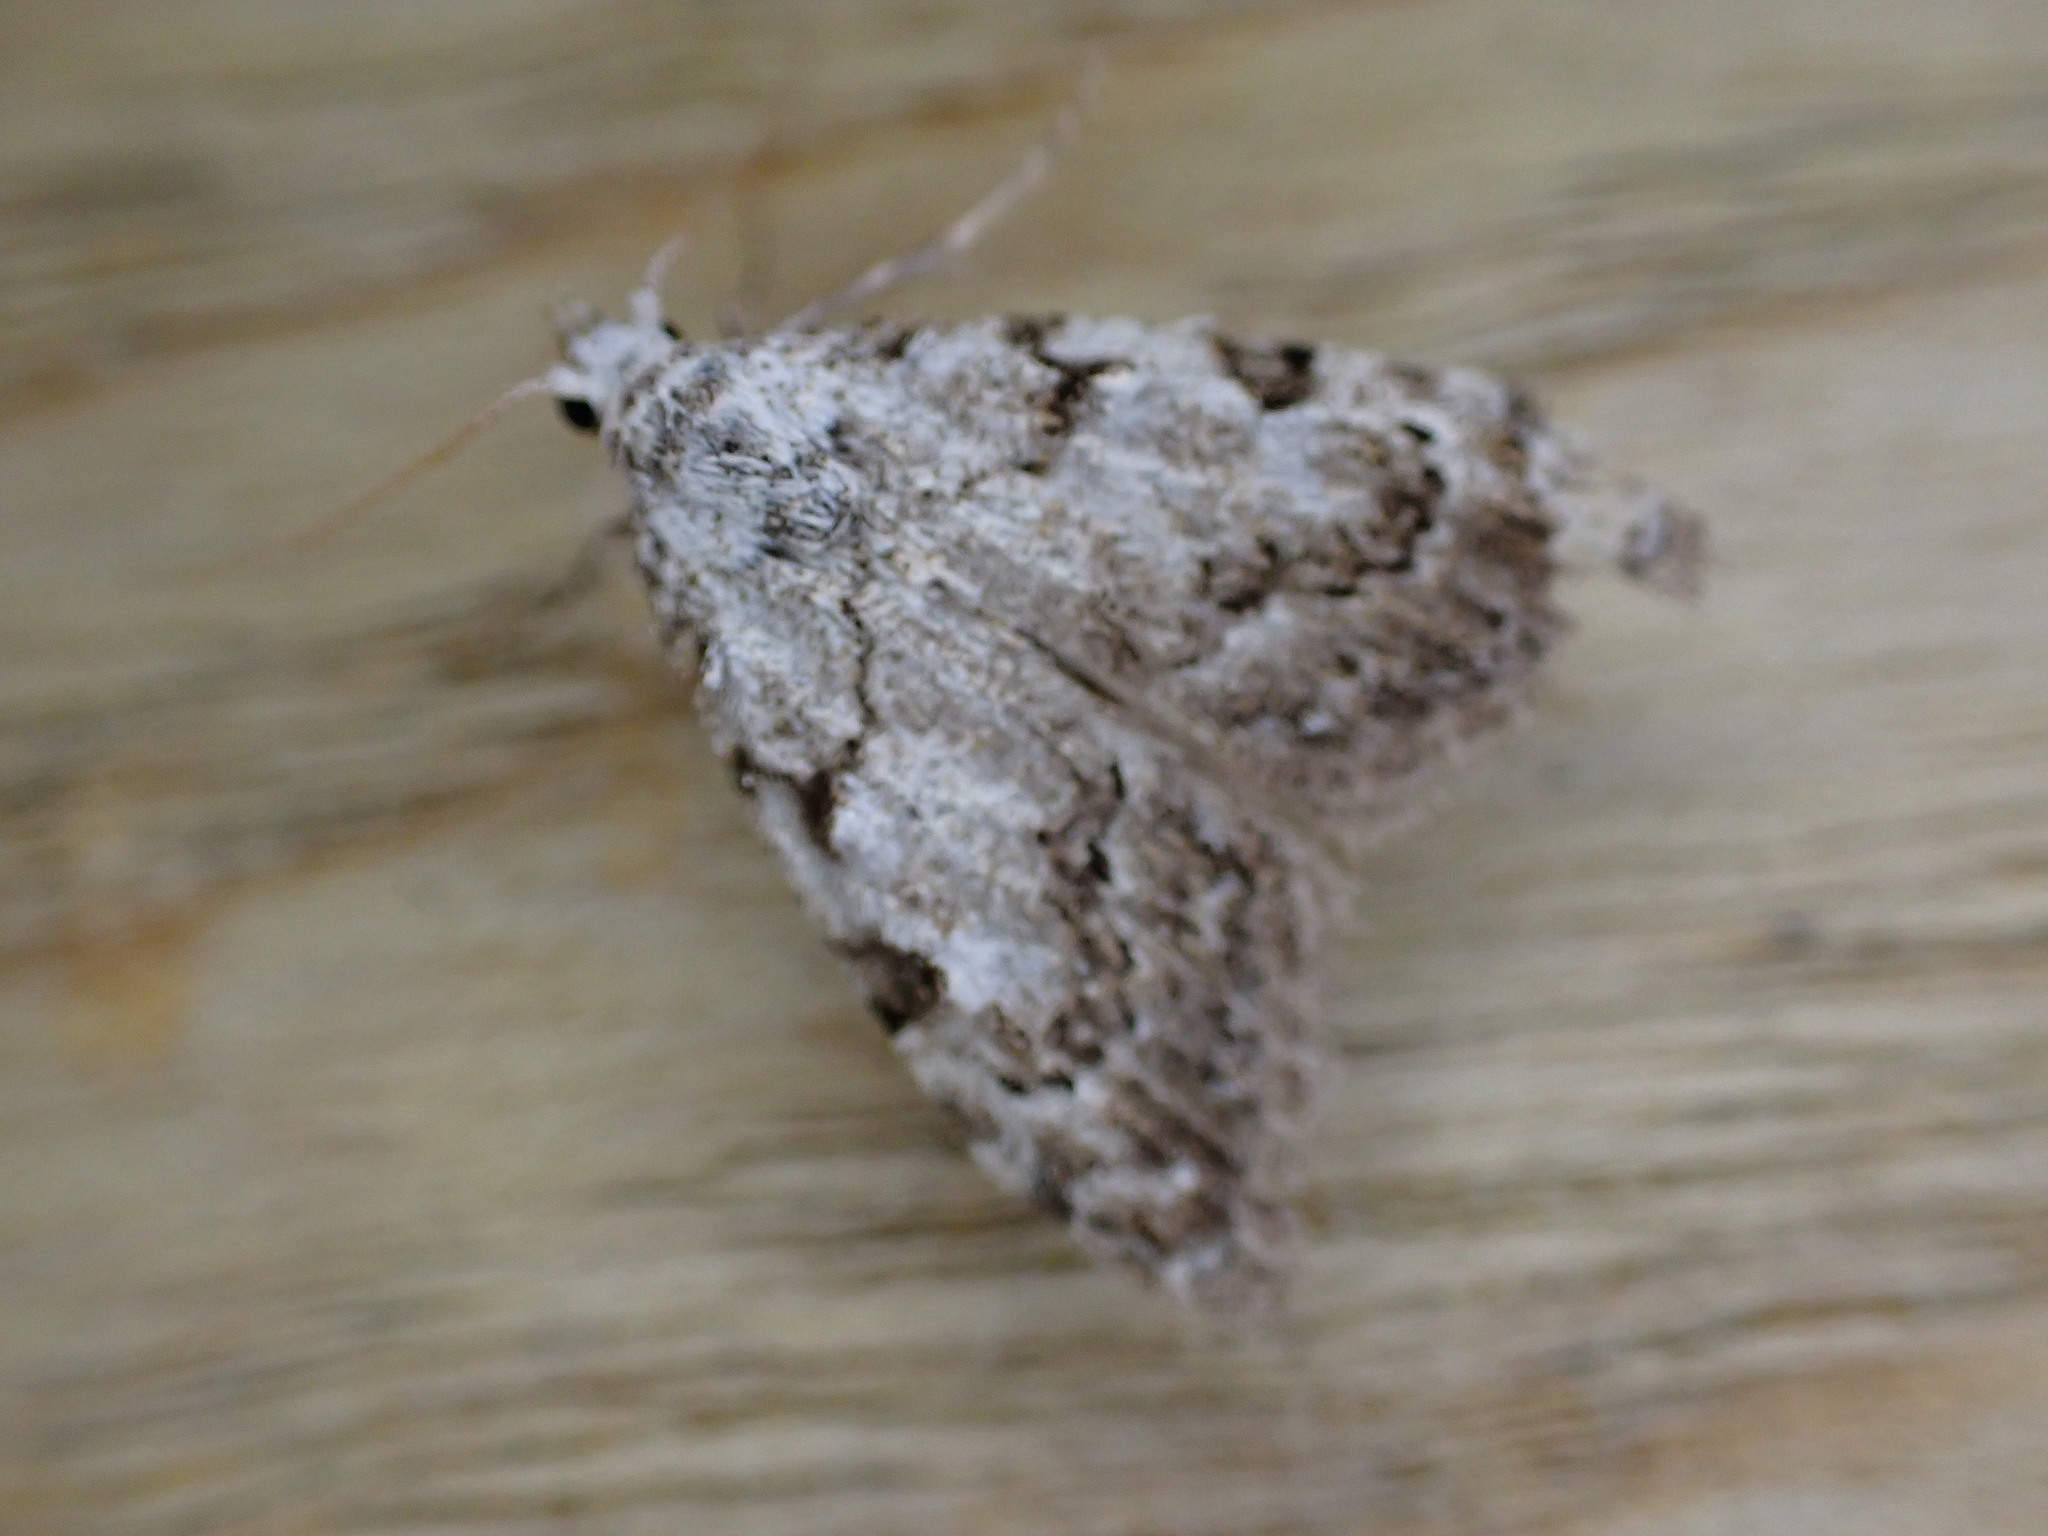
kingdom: Animalia
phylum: Arthropoda
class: Insecta
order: Lepidoptera
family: Nolidae
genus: Nola
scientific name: Nola confusalis
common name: Least black arches
